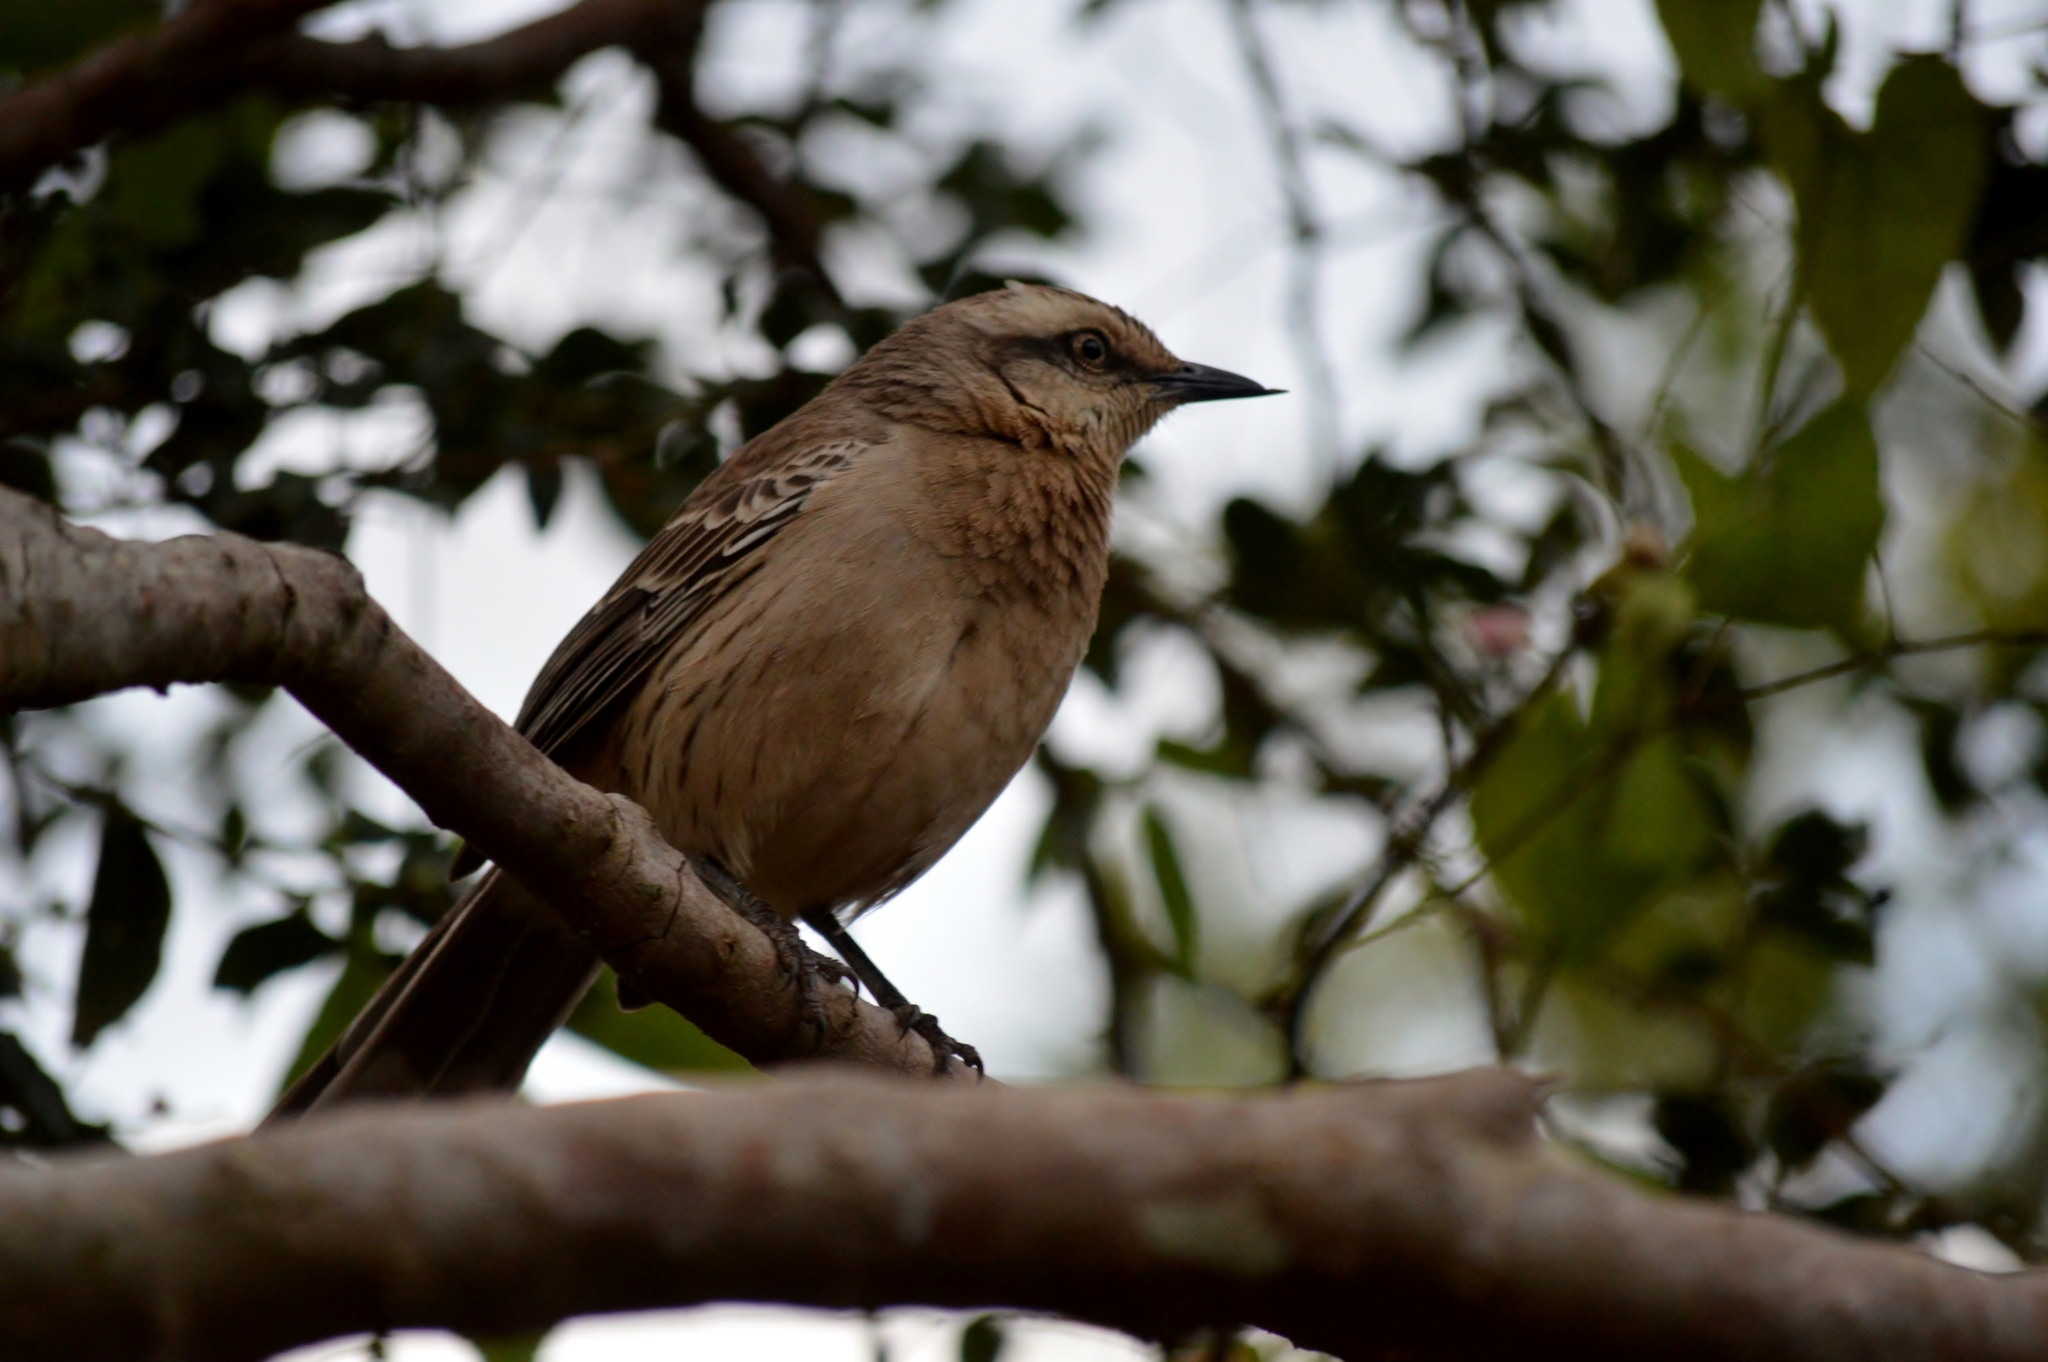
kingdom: Animalia
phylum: Chordata
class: Aves
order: Passeriformes
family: Mimidae
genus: Mimus
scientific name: Mimus saturninus
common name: Chalk-browed mockingbird
